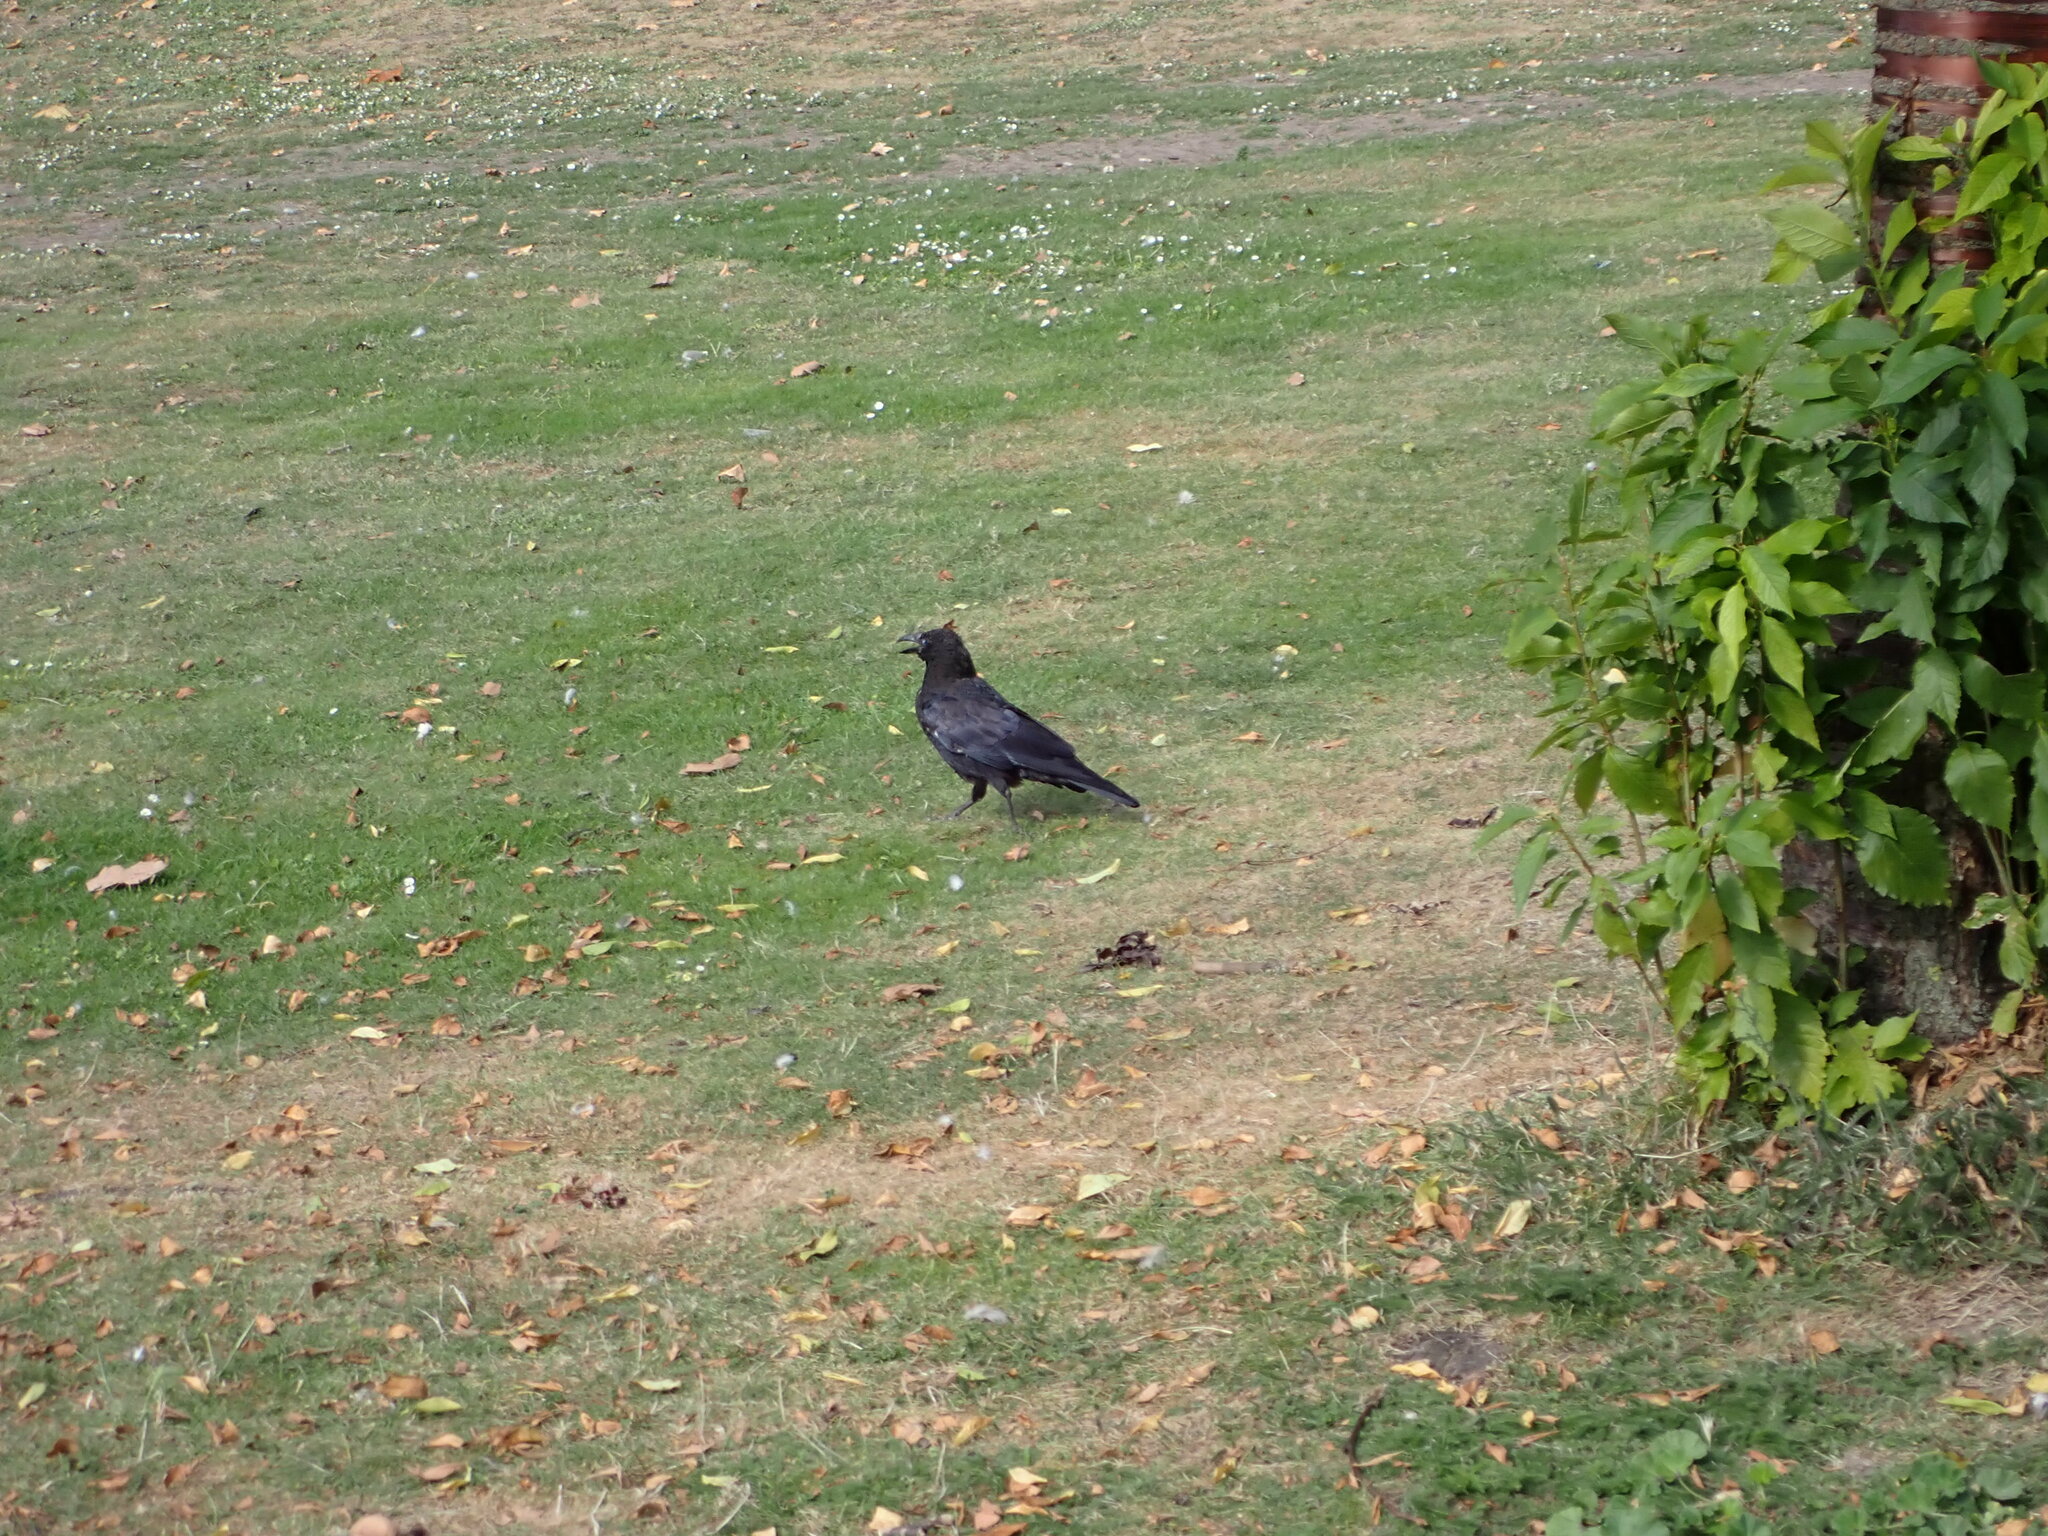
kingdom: Animalia
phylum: Chordata
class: Aves
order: Passeriformes
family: Corvidae
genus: Corvus
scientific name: Corvus corone
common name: Carrion crow
